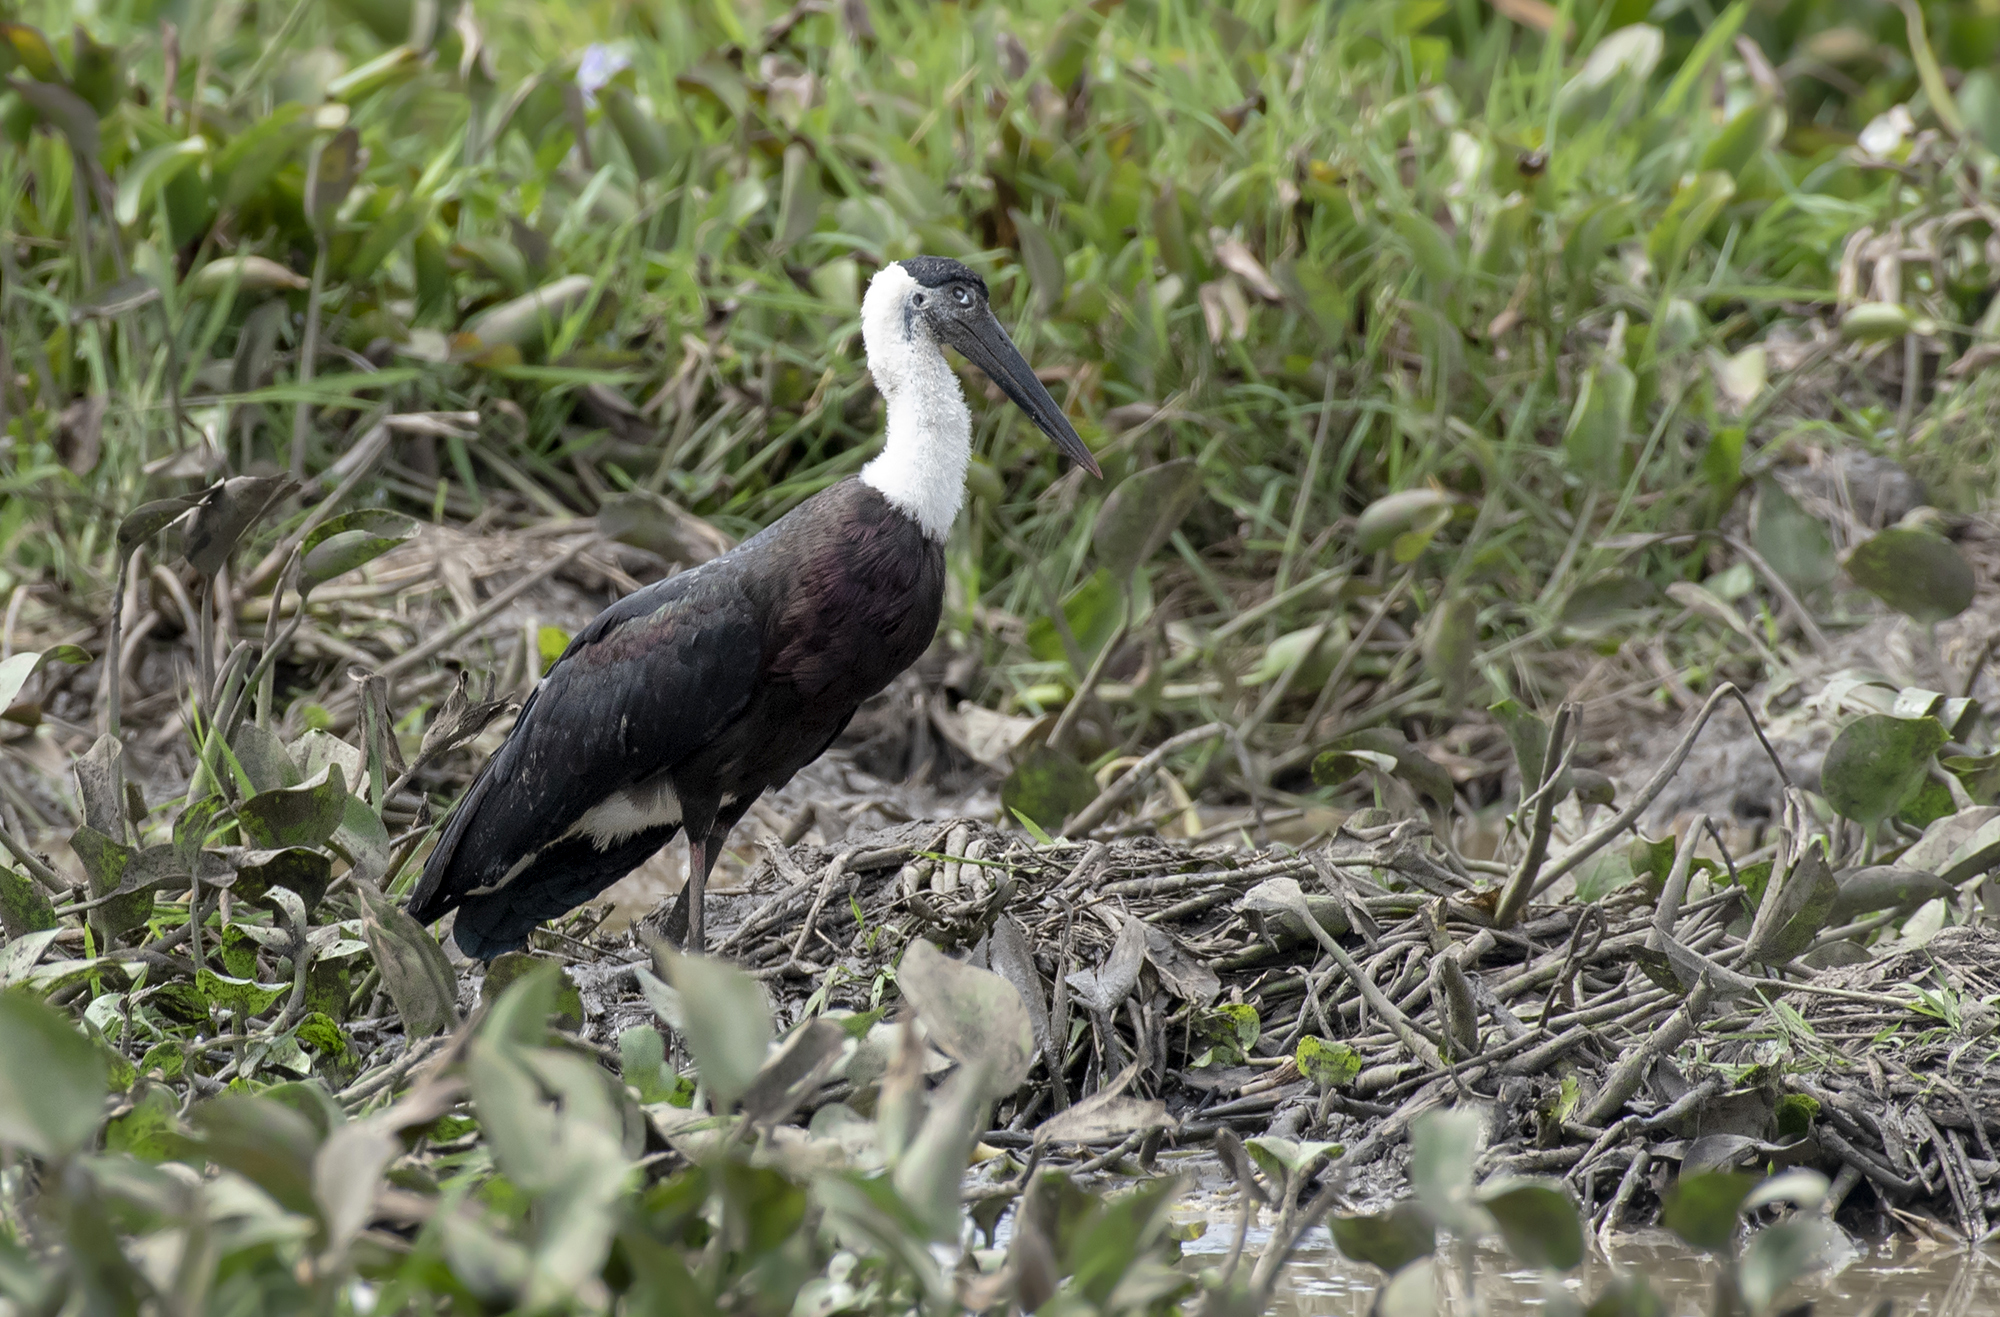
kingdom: Animalia
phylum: Chordata
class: Aves
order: Ciconiiformes
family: Ciconiidae
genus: Ciconia
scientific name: Ciconia episcopus
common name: Woolly-necked stork
